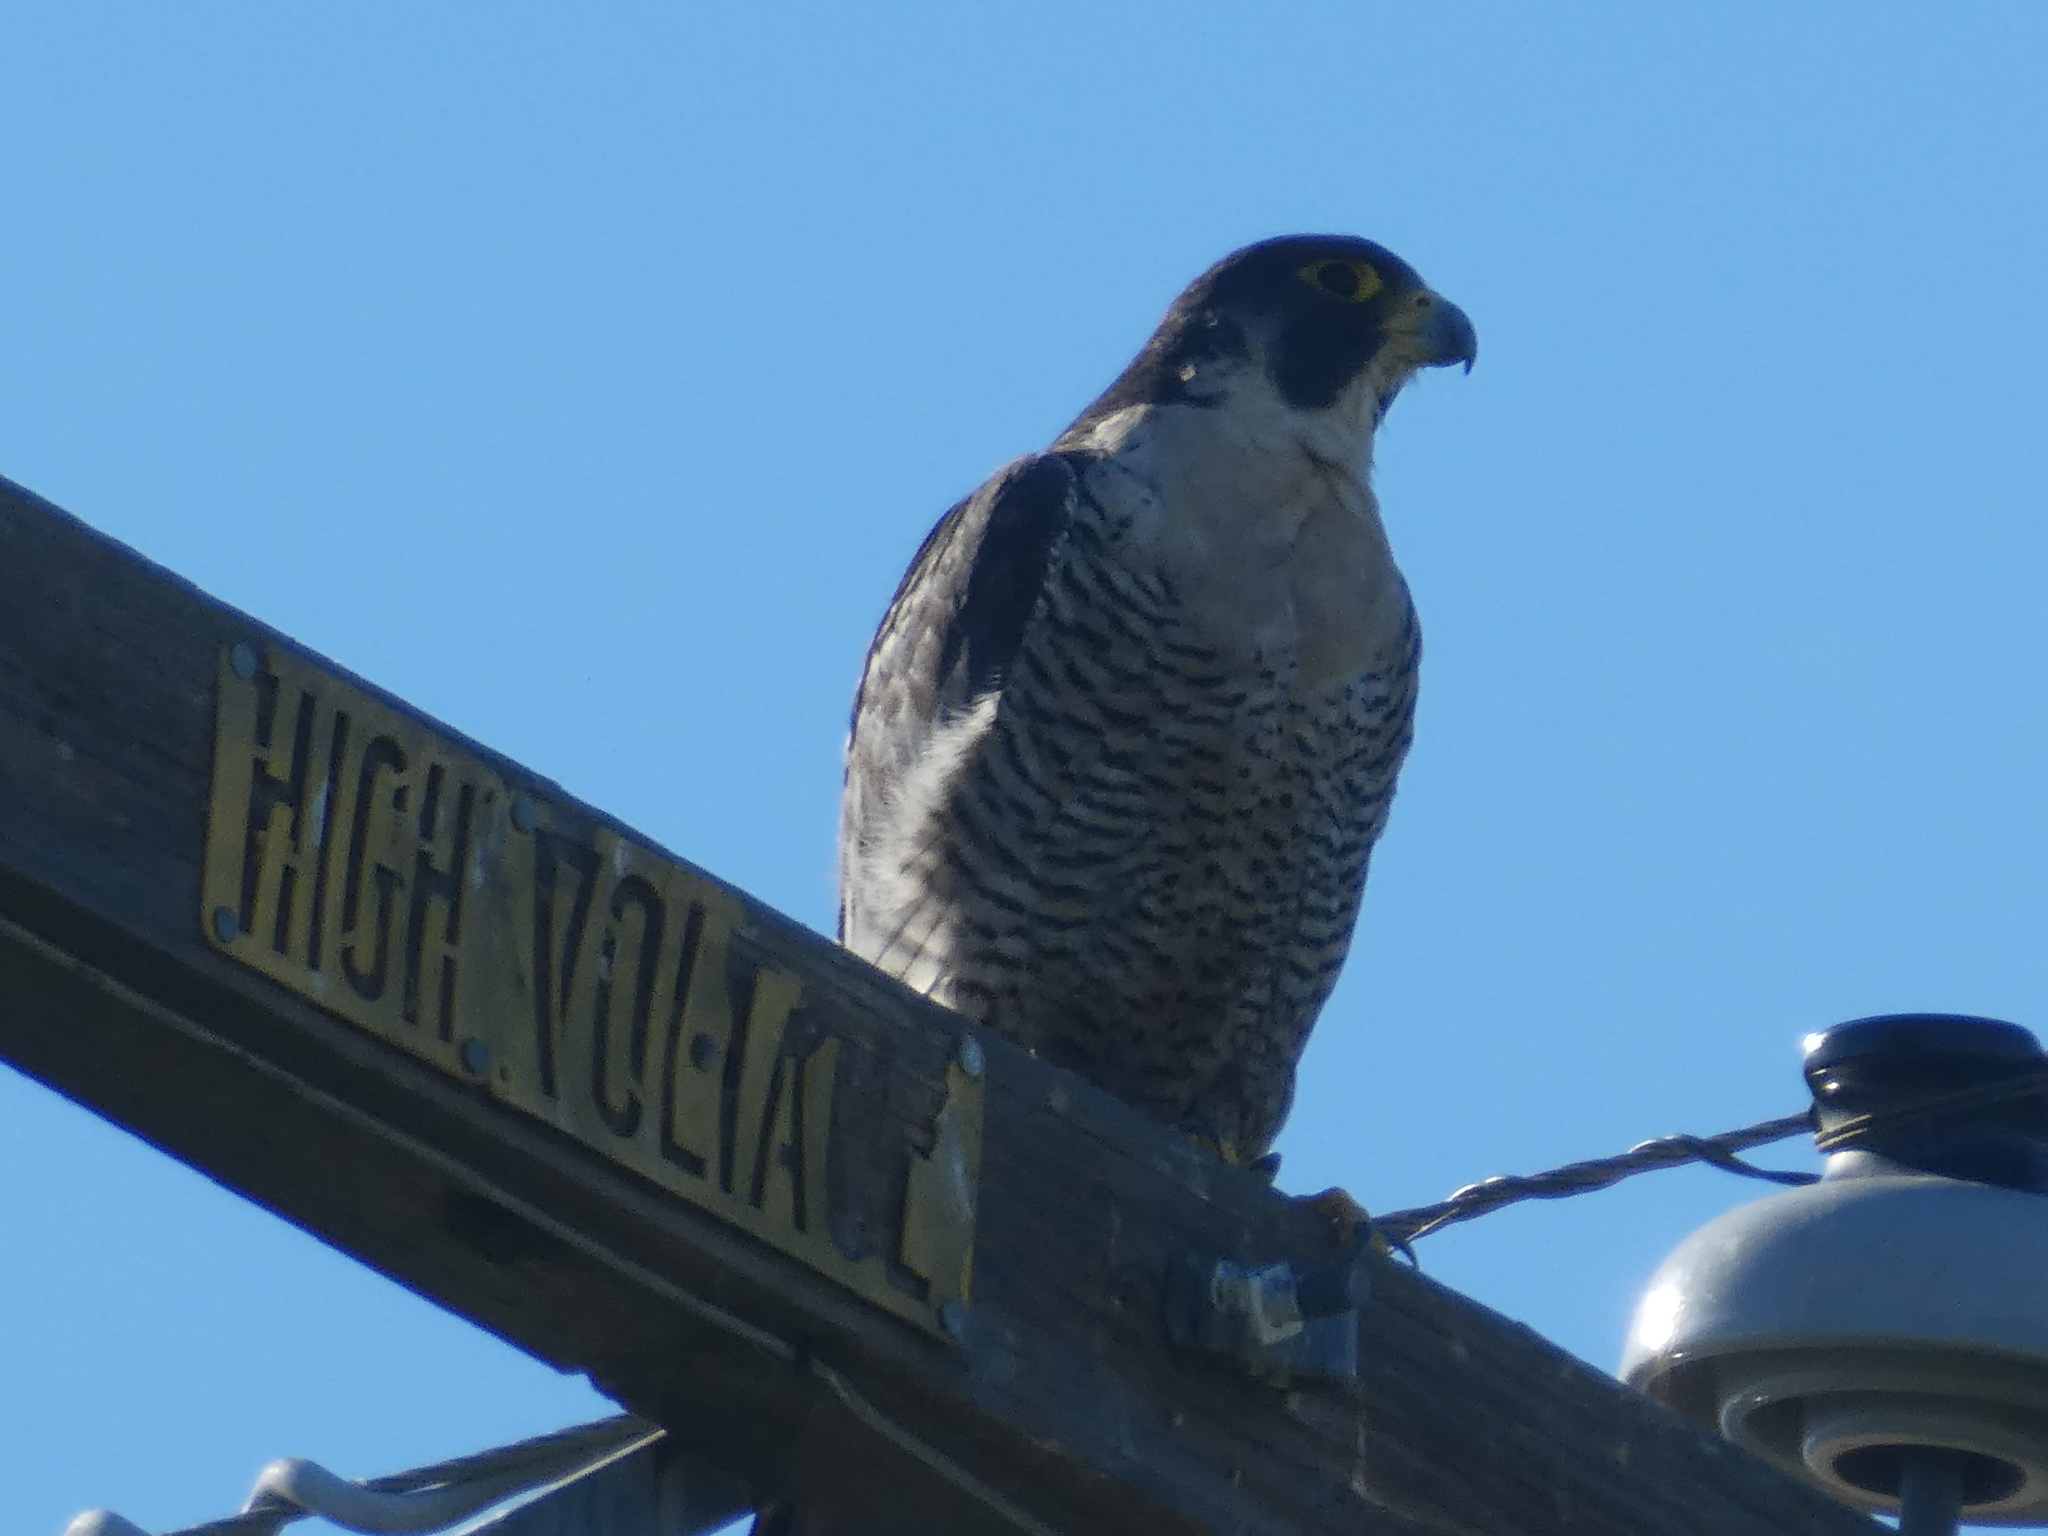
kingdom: Animalia
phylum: Chordata
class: Aves
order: Falconiformes
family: Falconidae
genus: Falco
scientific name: Falco peregrinus
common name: Peregrine falcon
